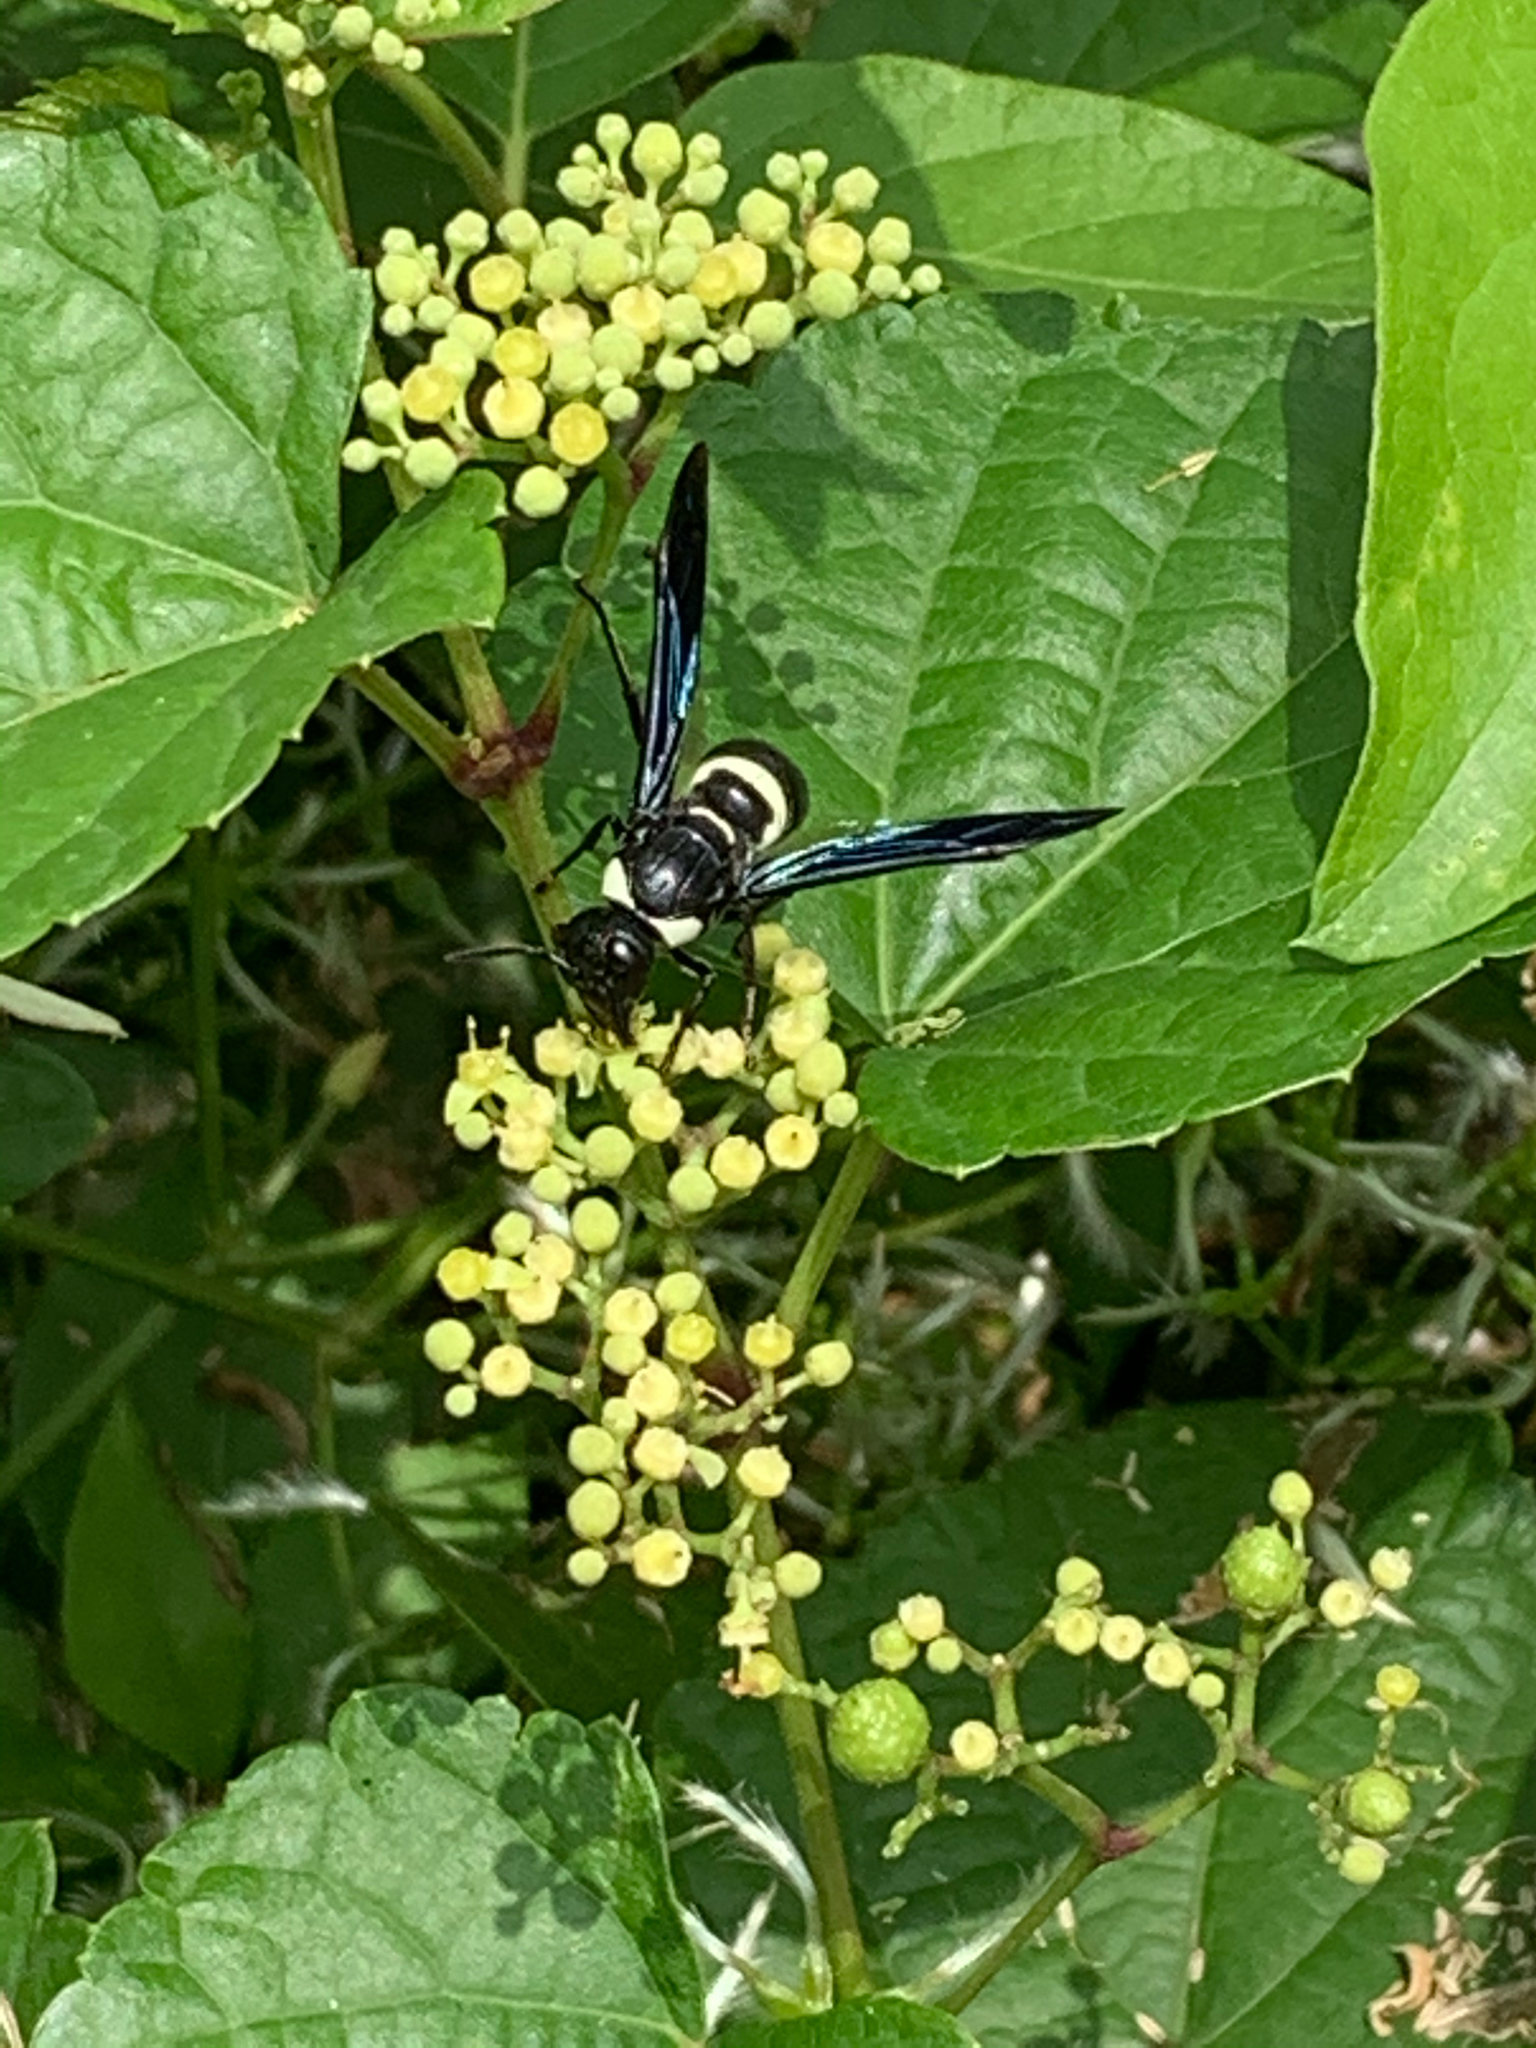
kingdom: Animalia
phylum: Arthropoda
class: Insecta
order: Hymenoptera
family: Eumenidae
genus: Monobia
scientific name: Monobia quadridens
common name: Four-toothed mason wasp
